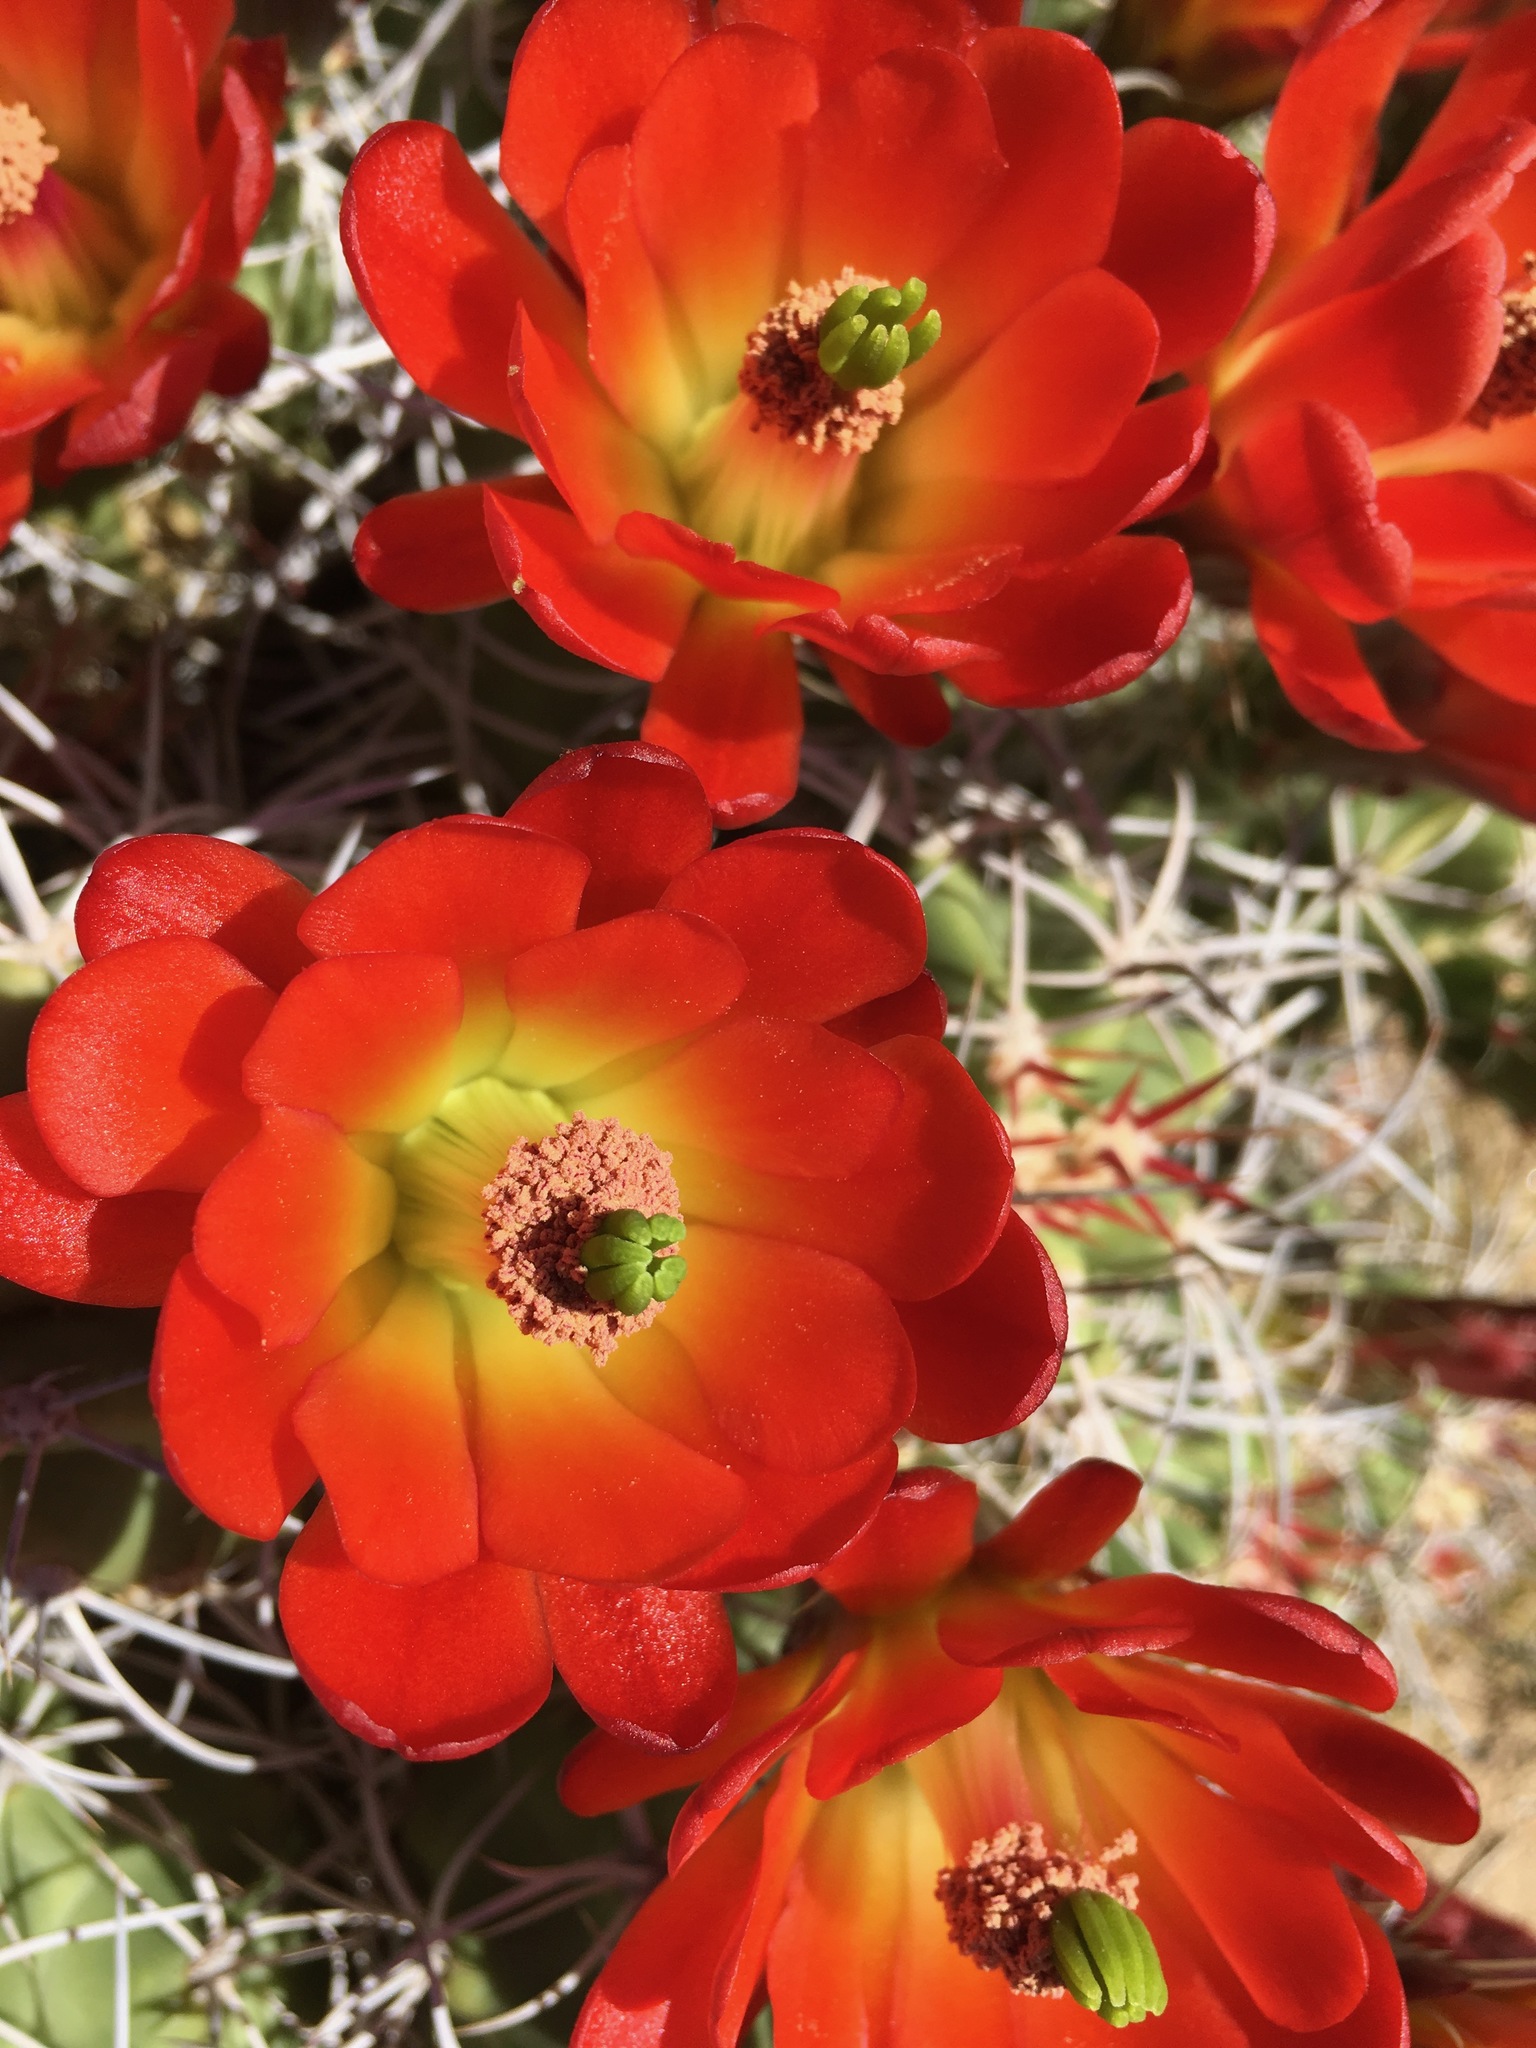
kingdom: Plantae
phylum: Tracheophyta
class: Magnoliopsida
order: Caryophyllales
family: Cactaceae
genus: Echinocereus
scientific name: Echinocereus triglochidiatus
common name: Claretcup hedgehog
